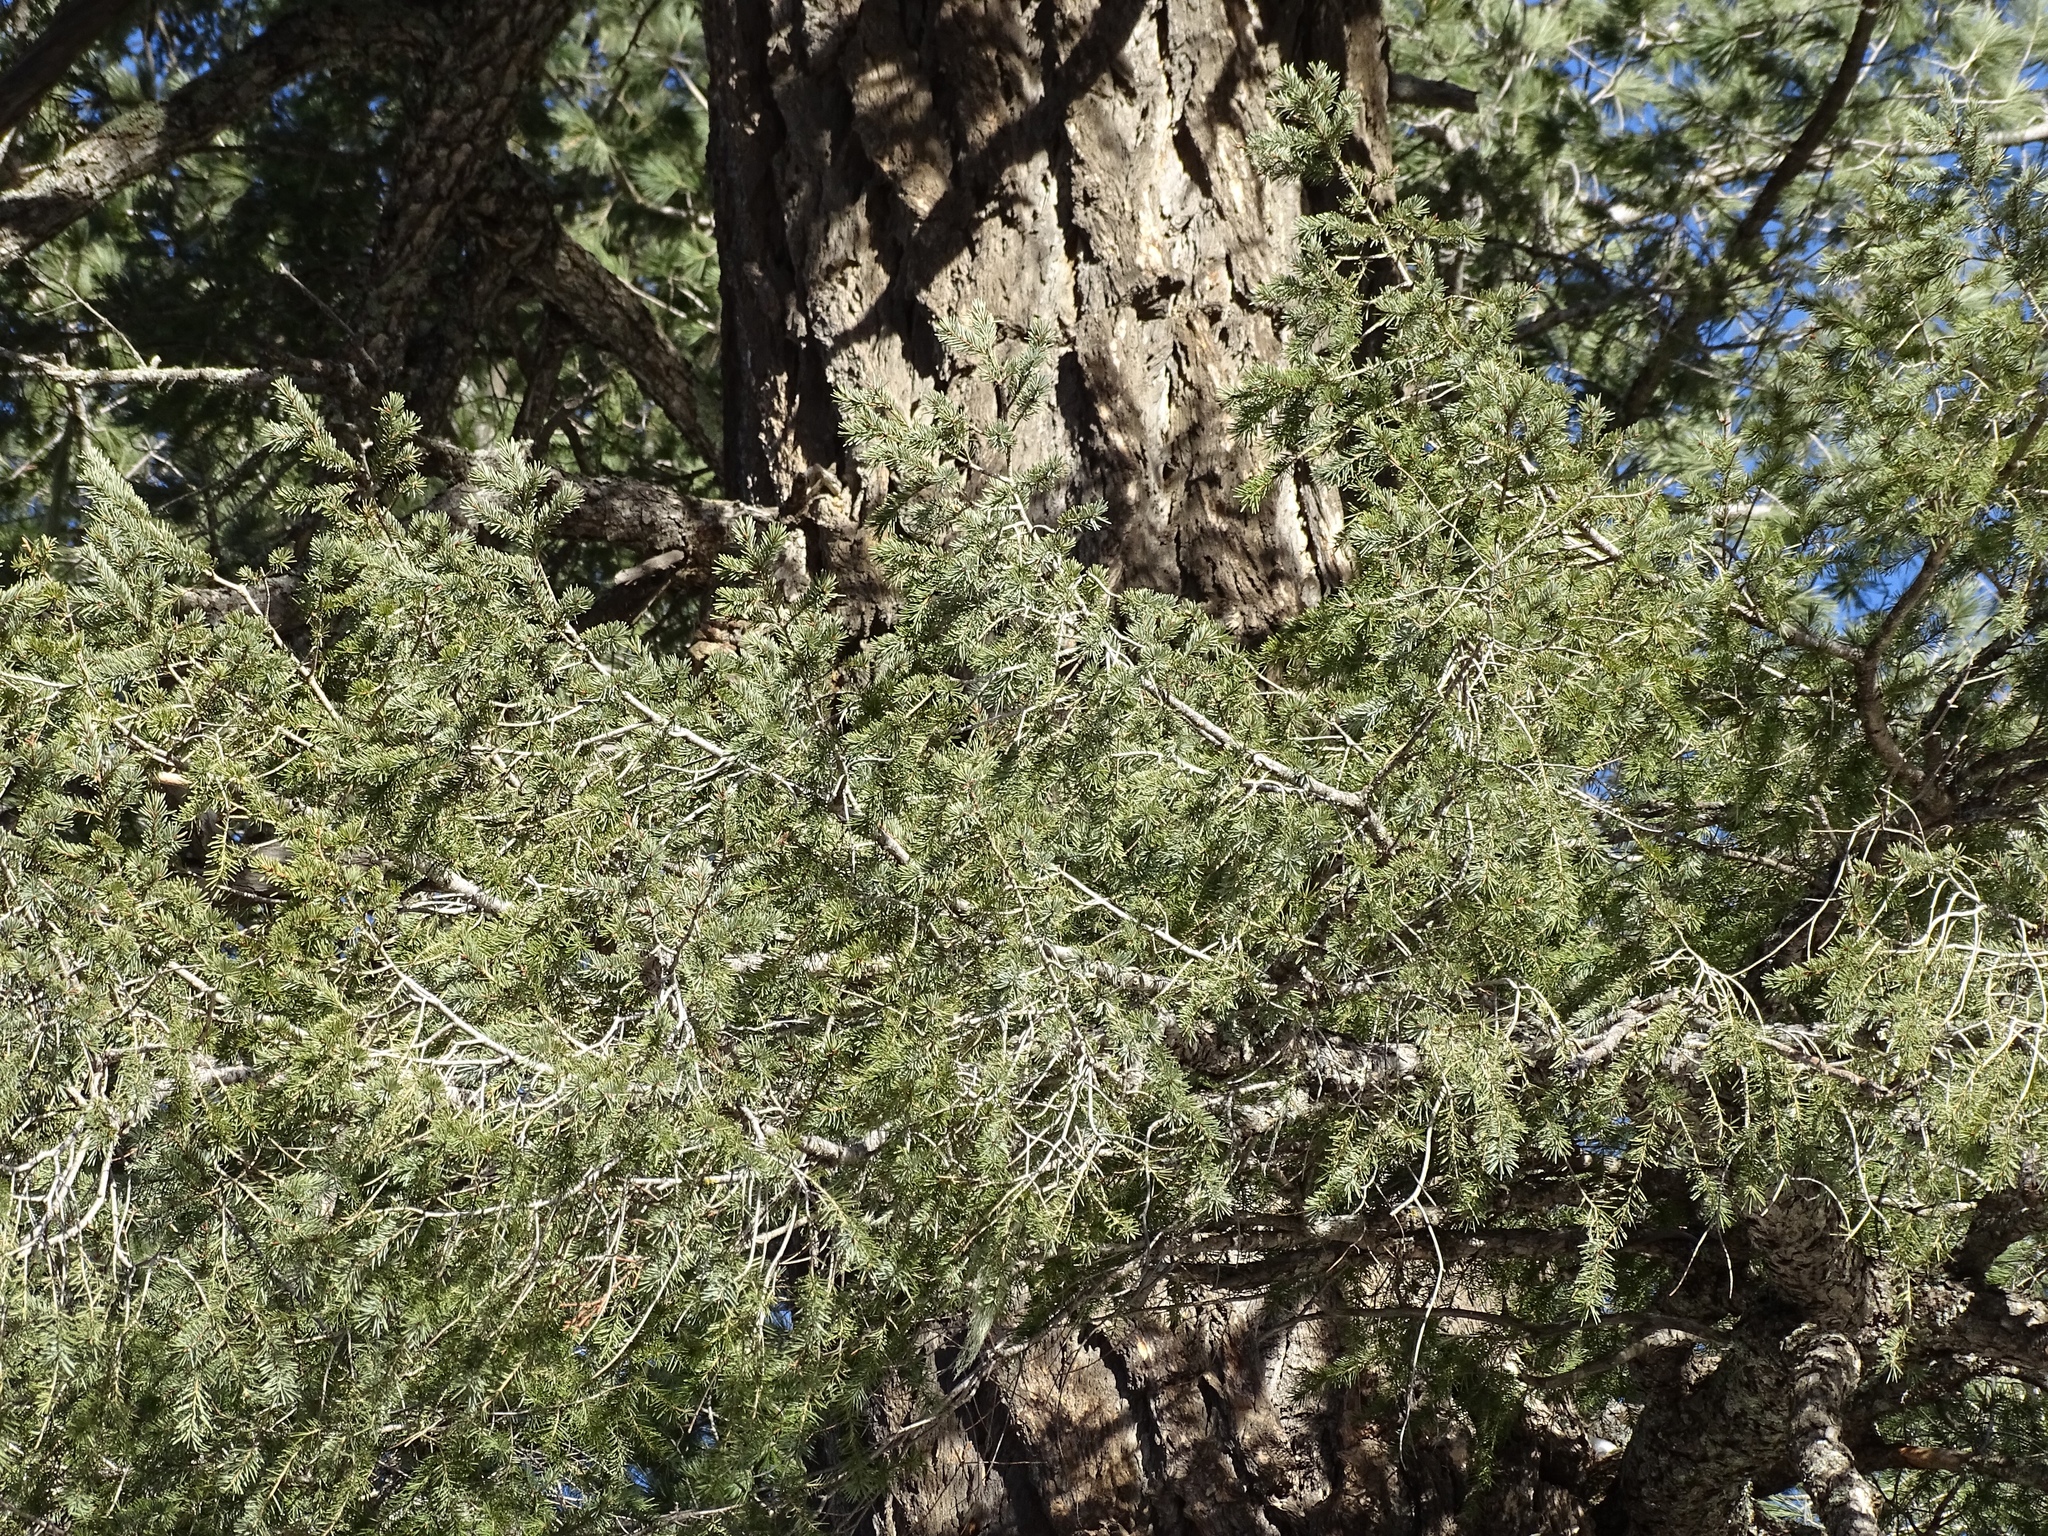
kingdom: Plantae
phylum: Tracheophyta
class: Pinopsida
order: Pinales
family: Pinaceae
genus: Pseudotsuga
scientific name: Pseudotsuga menziesii
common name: Douglas fir
